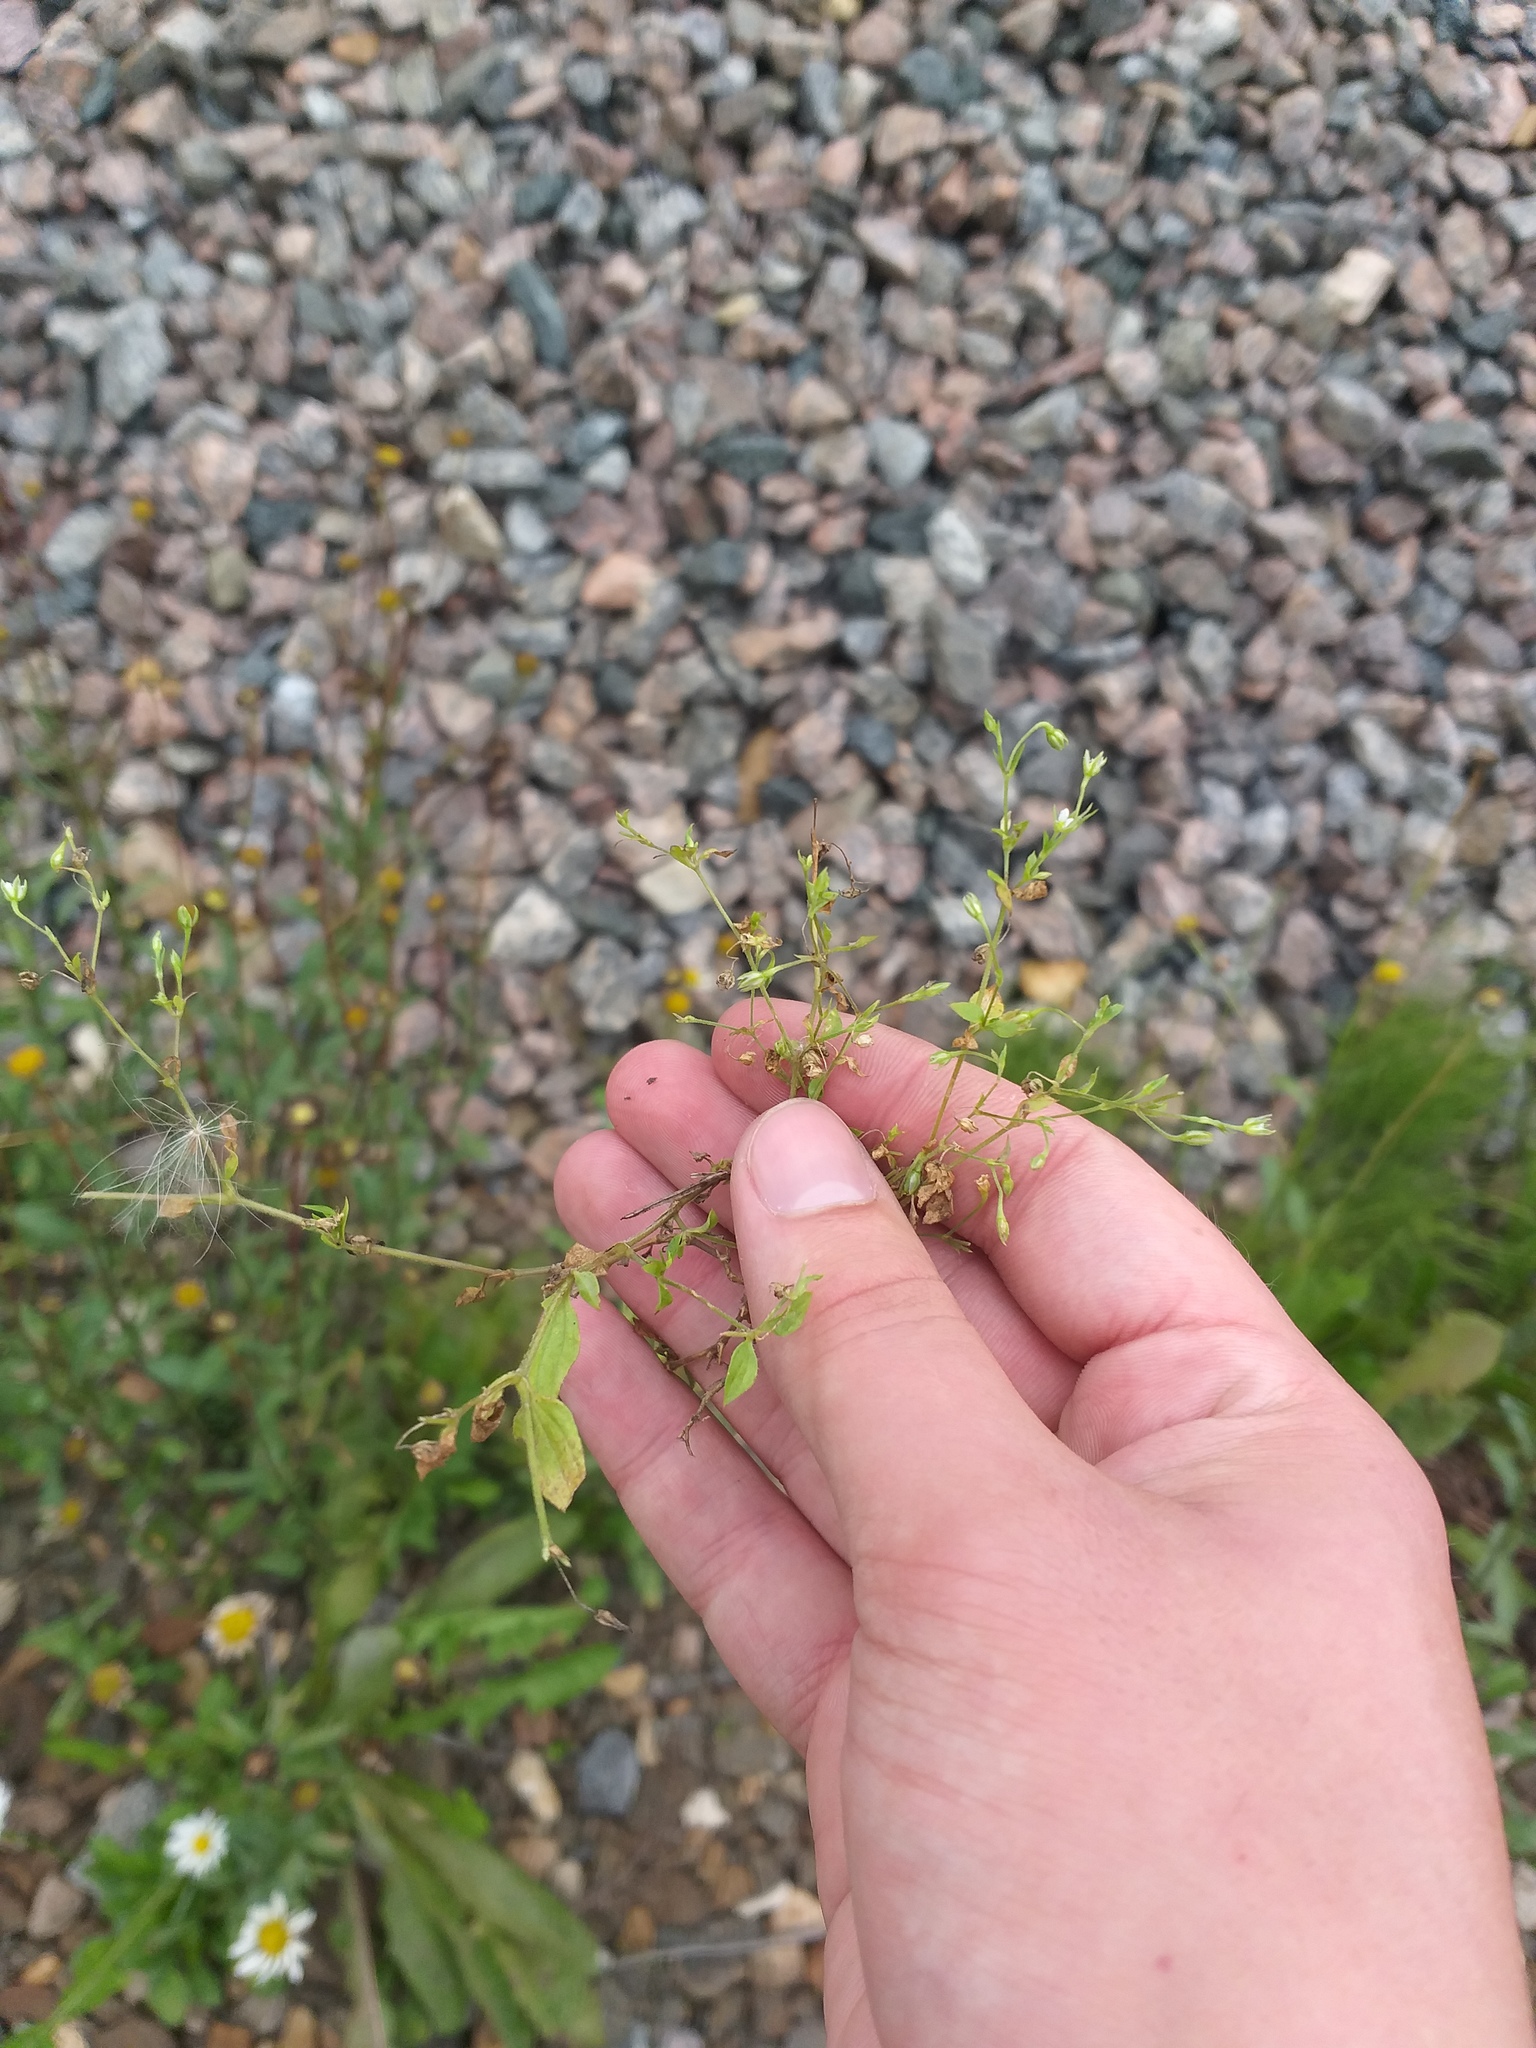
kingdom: Plantae
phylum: Tracheophyta
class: Magnoliopsida
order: Caryophyllales
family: Caryophyllaceae
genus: Moehringia
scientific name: Moehringia trinervia
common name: Three-nerved sandwort
